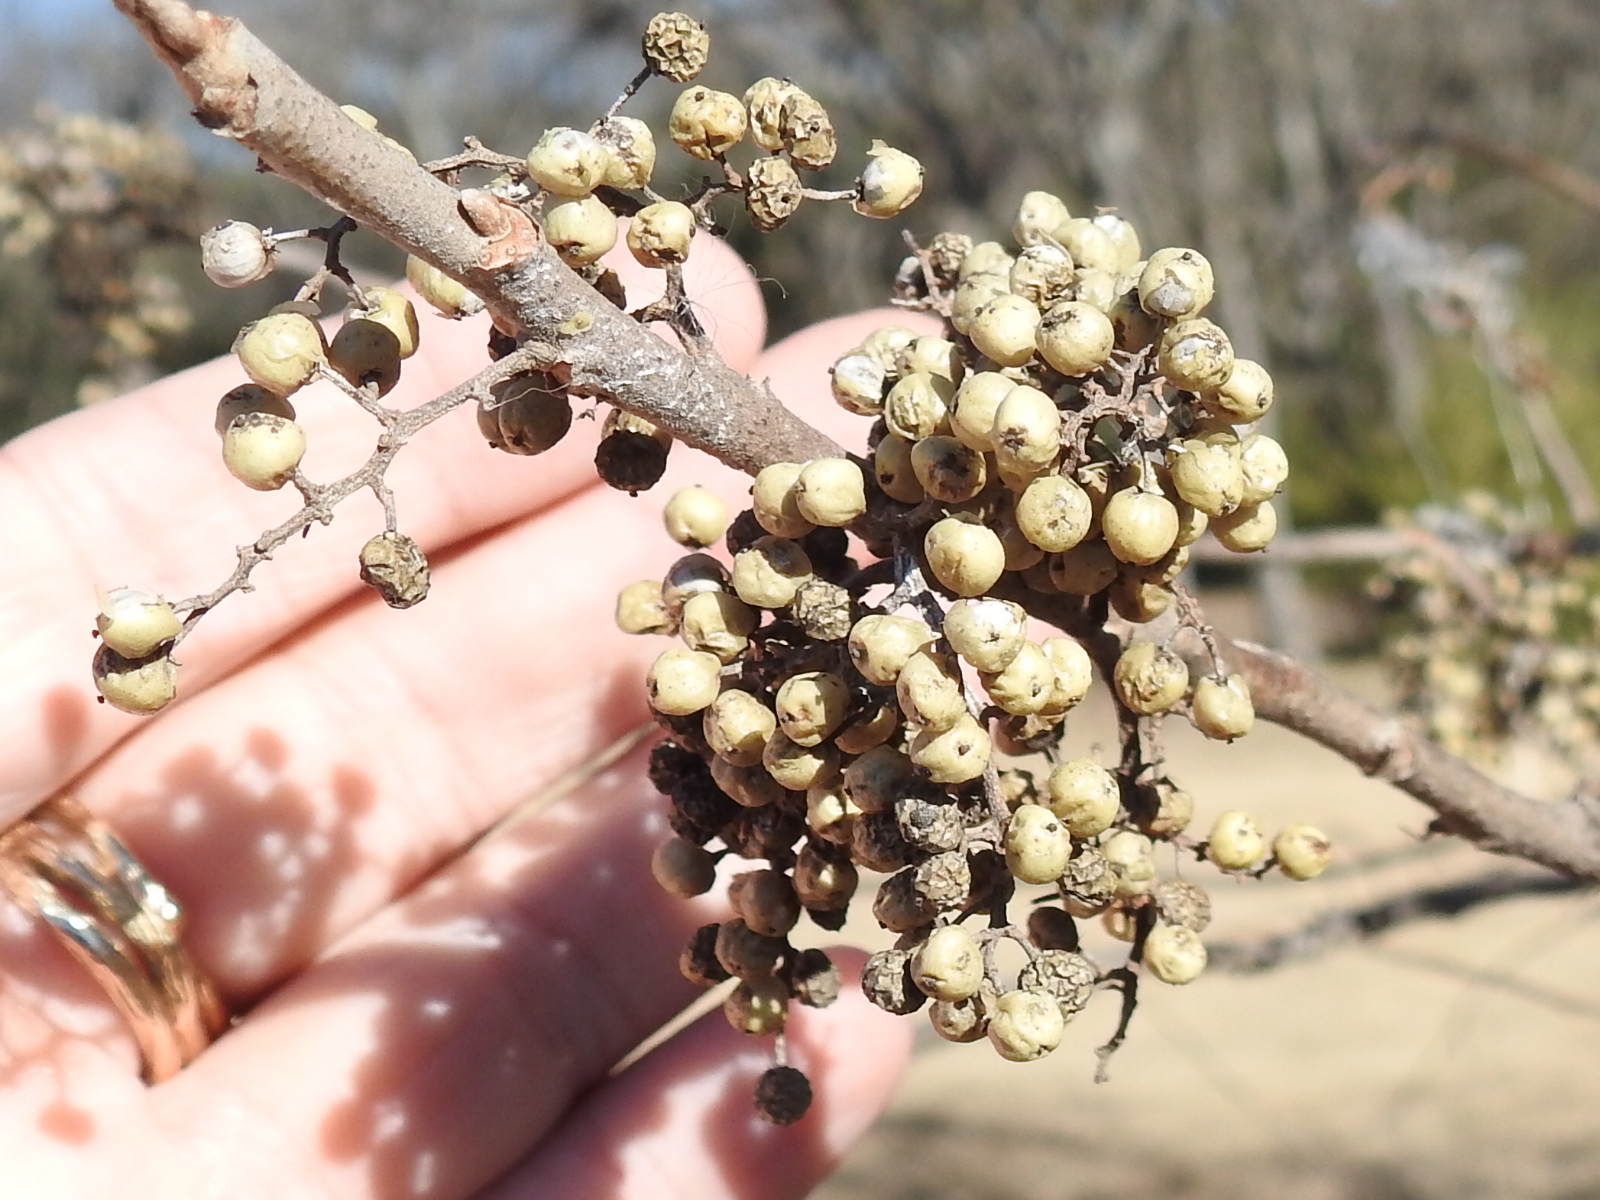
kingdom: Plantae
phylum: Tracheophyta
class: Magnoliopsida
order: Sapindales
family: Anacardiaceae
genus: Toxicodendron
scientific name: Toxicodendron radicans
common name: Poison ivy
